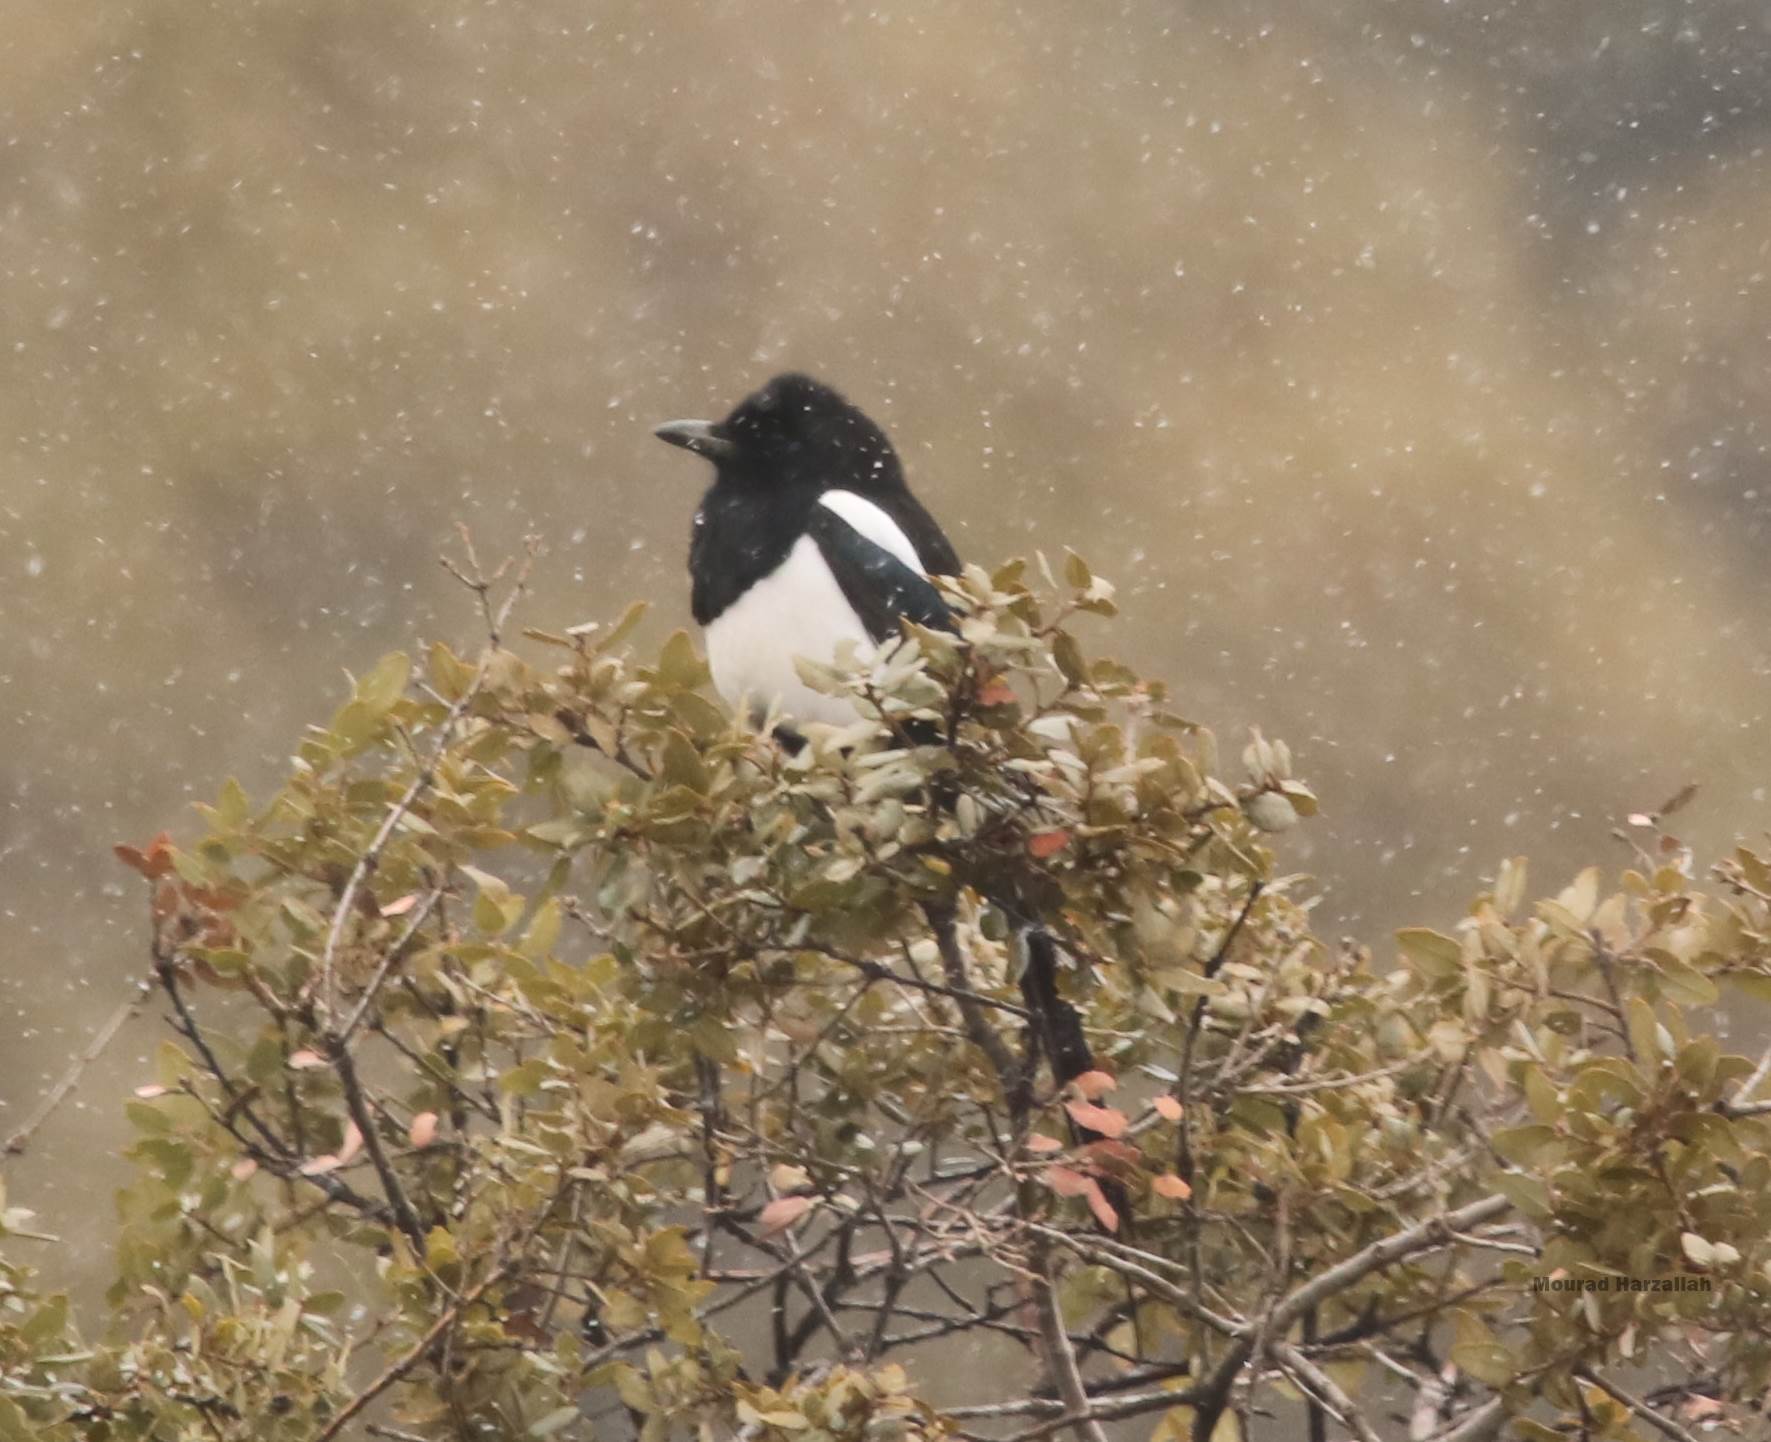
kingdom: Animalia
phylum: Chordata
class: Aves
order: Passeriformes
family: Corvidae
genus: Pica
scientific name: Pica mauritanica
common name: Maghreb magpie
